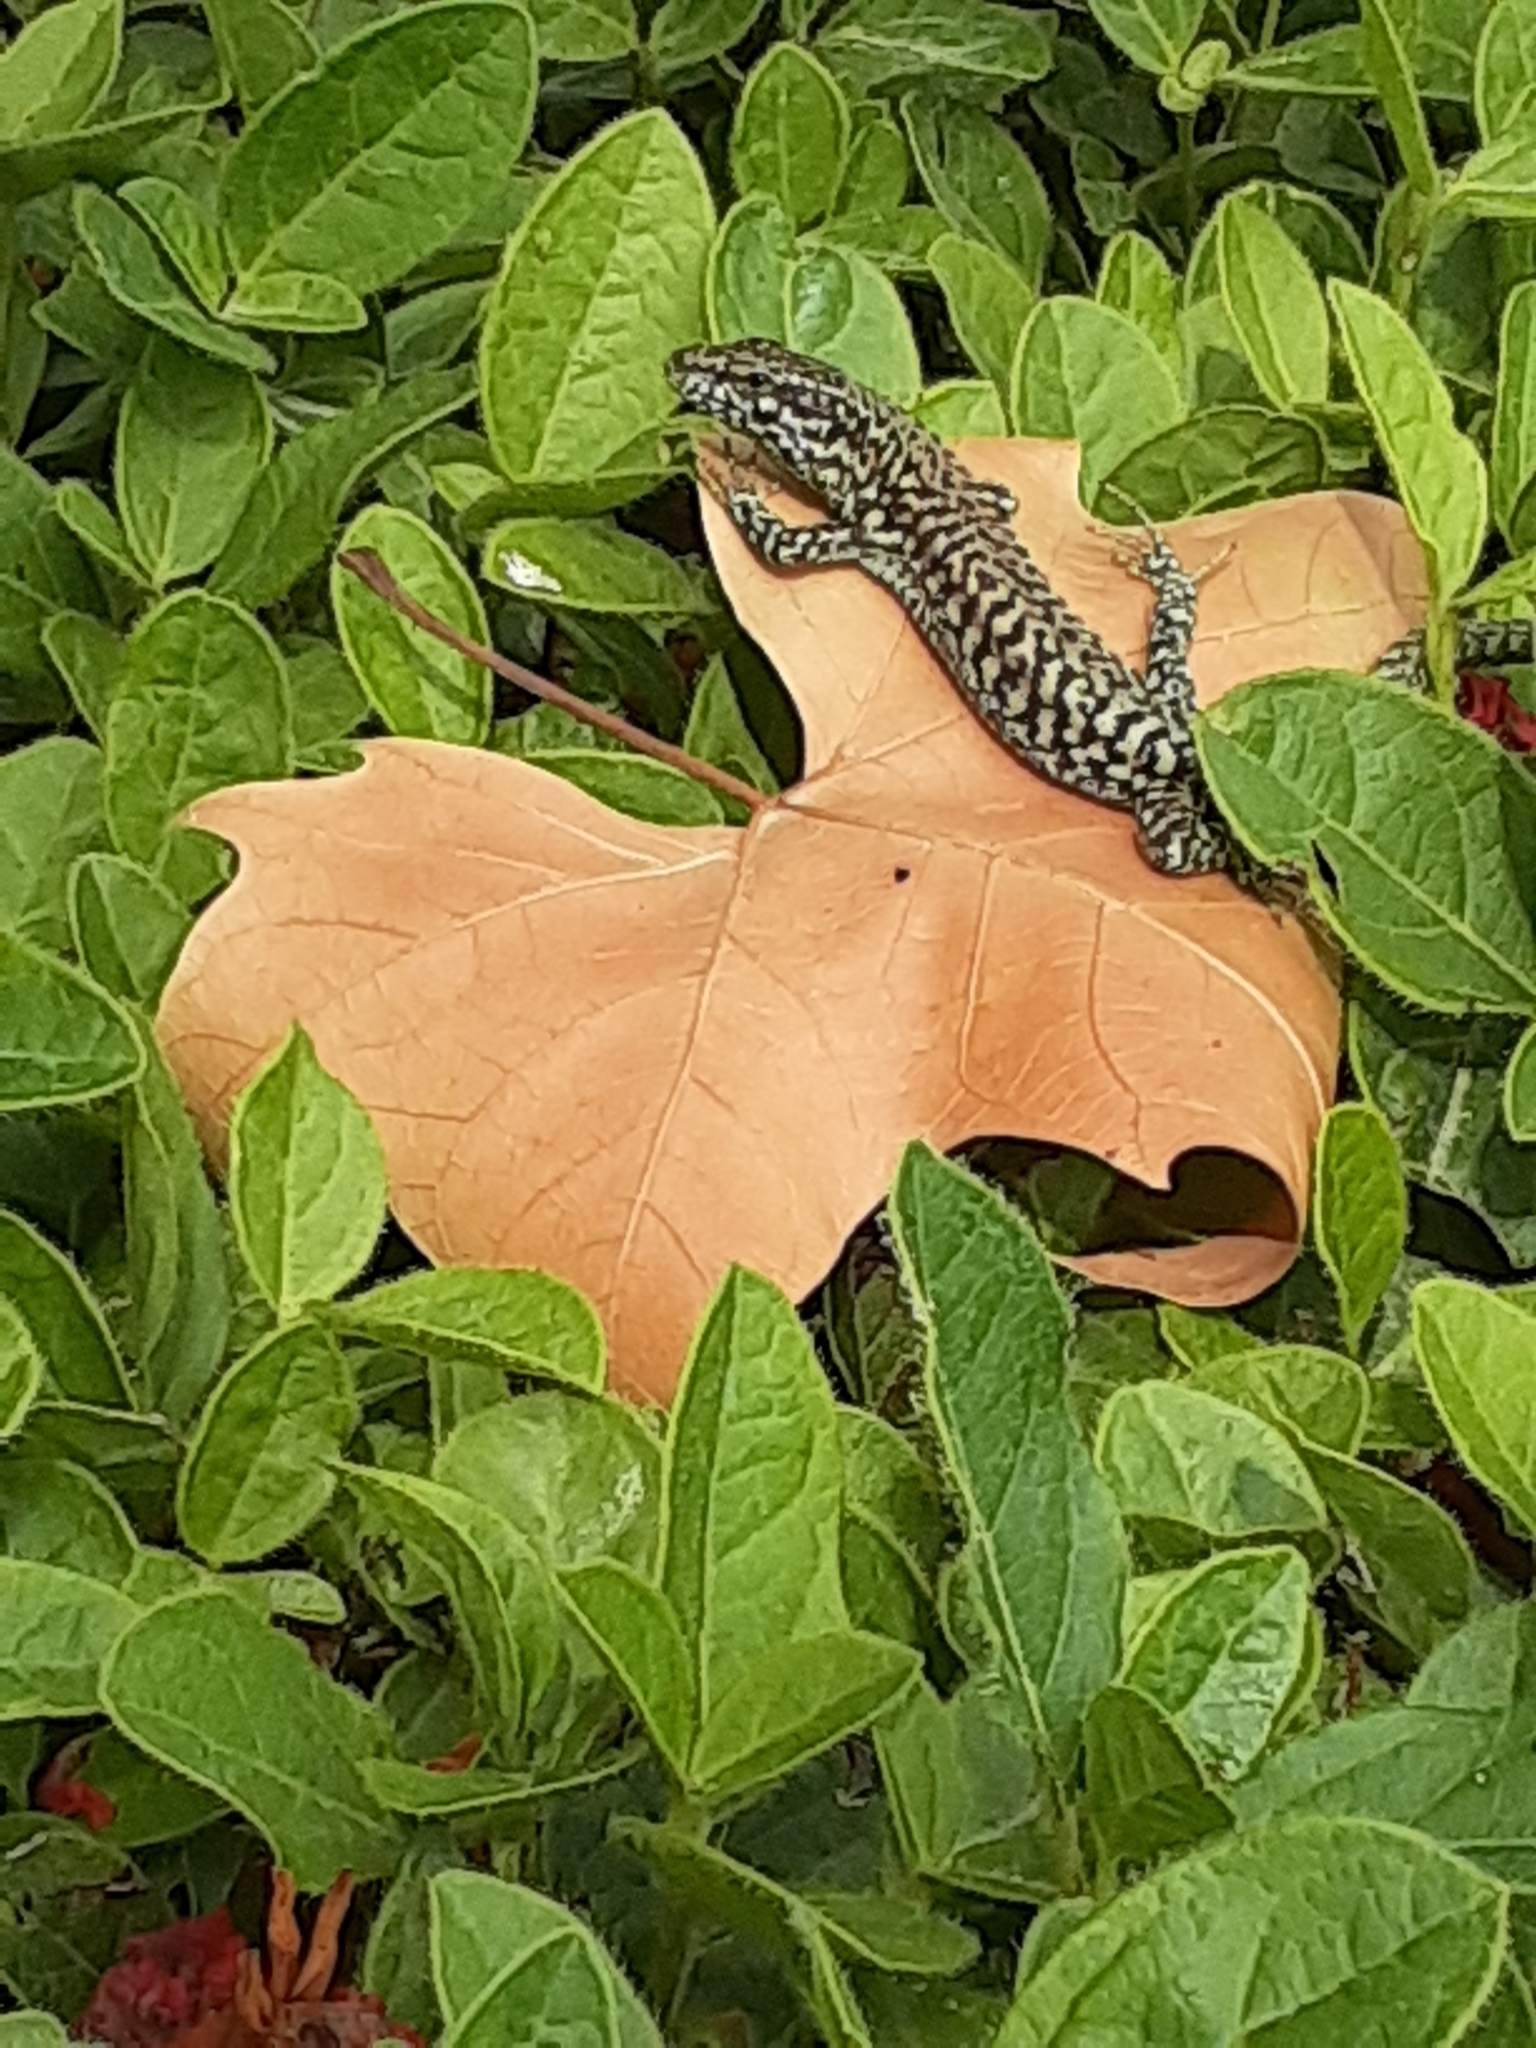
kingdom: Animalia
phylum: Chordata
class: Squamata
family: Lacertidae
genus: Podarcis
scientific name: Podarcis muralis
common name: Common wall lizard
